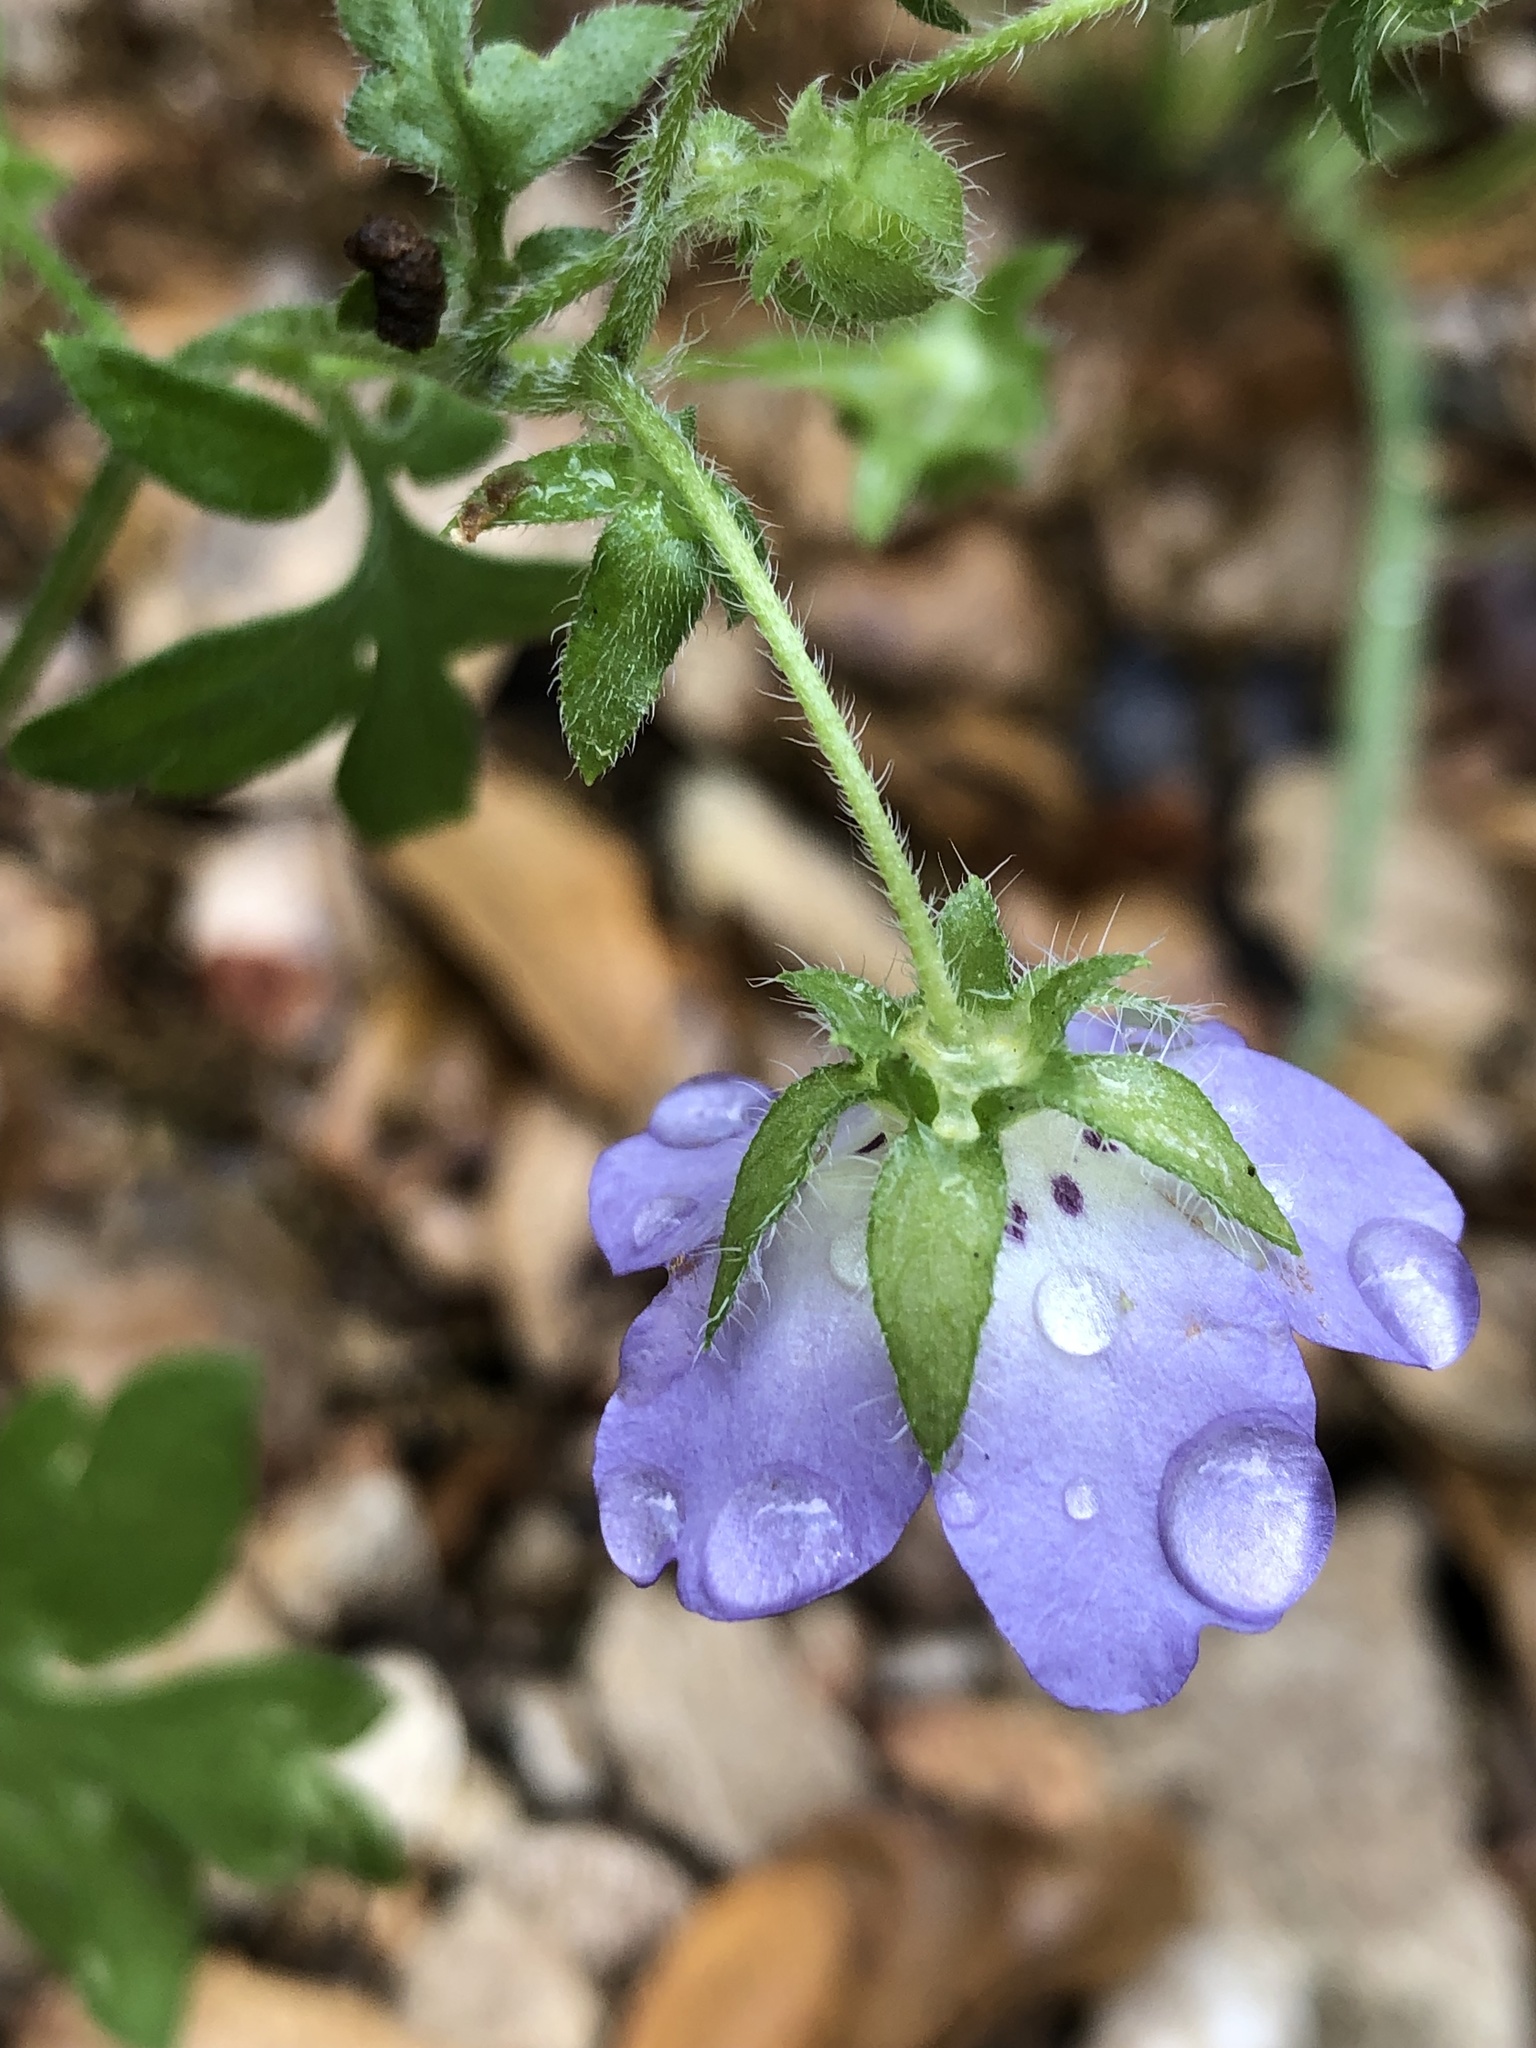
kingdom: Plantae
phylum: Tracheophyta
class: Magnoliopsida
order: Boraginales
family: Hydrophyllaceae
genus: Nemophila
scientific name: Nemophila phacelioides
